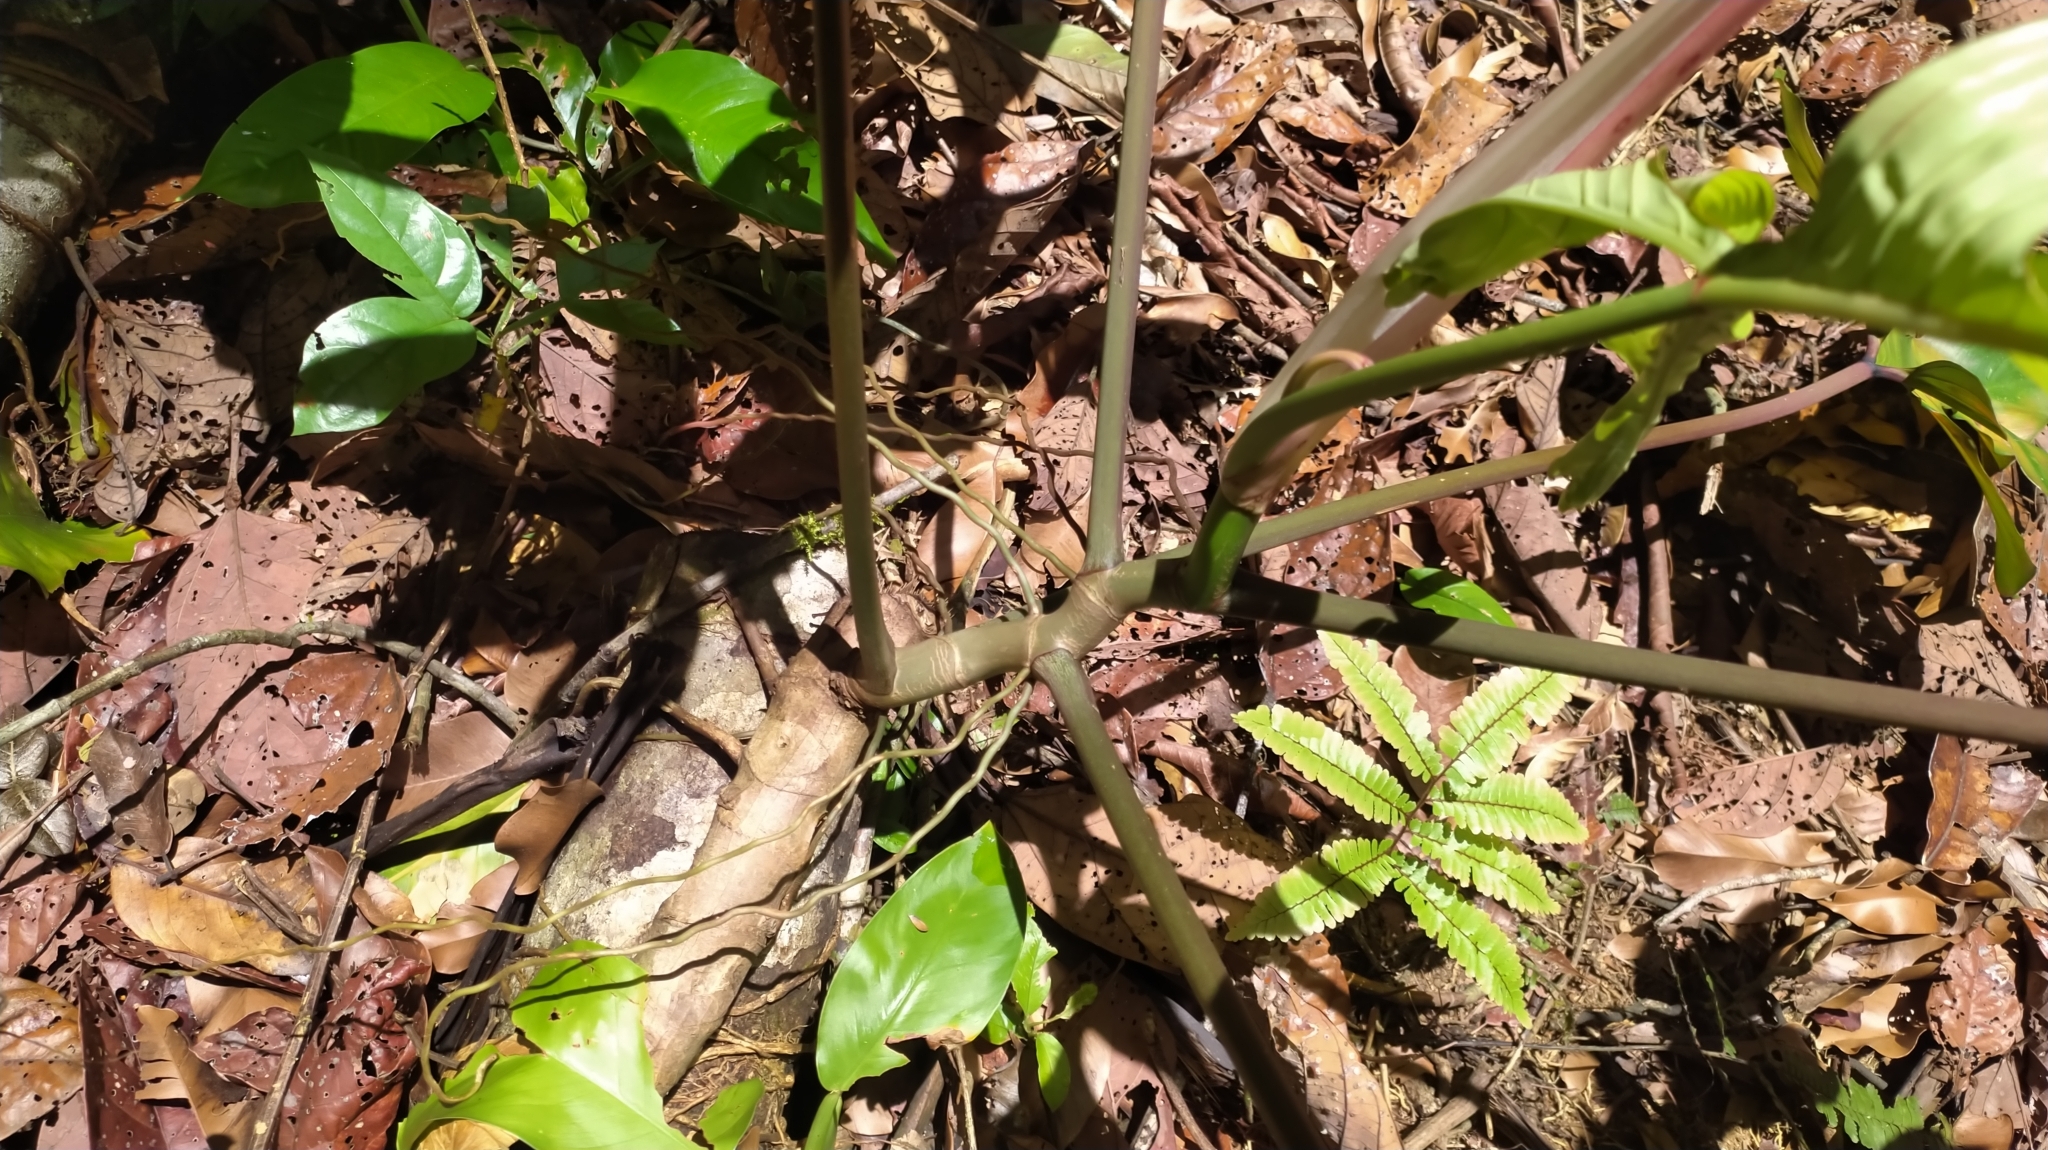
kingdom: Plantae
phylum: Tracheophyta
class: Liliopsida
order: Alismatales
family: Araceae
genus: Philodendron
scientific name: Philodendron pedatum
